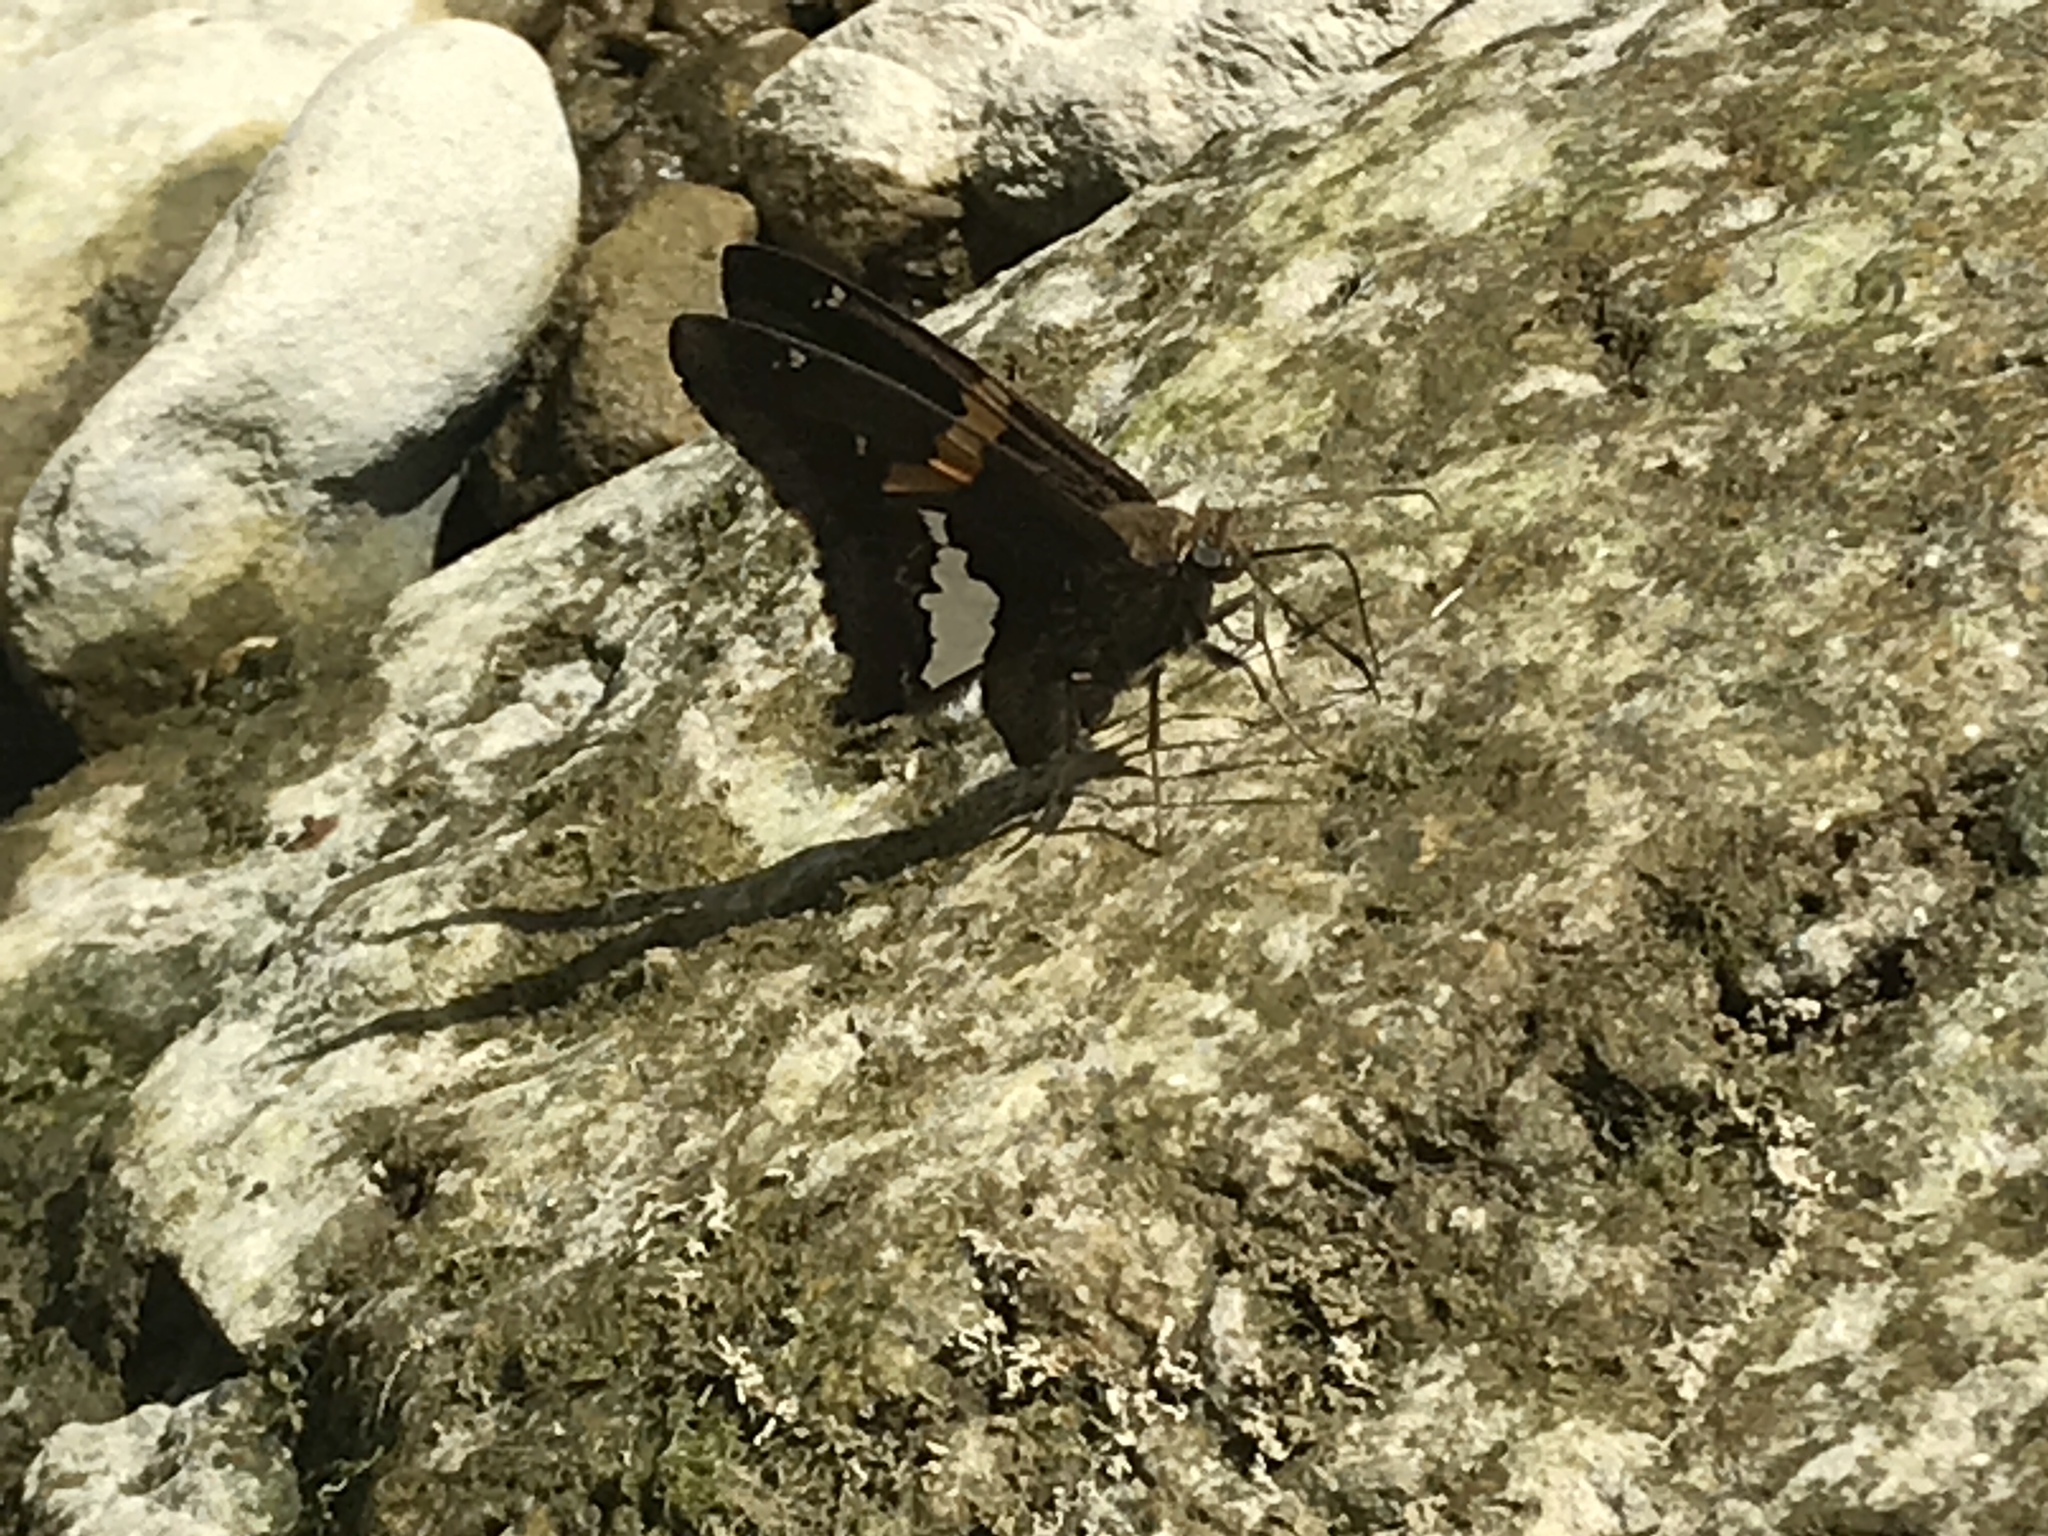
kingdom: Animalia
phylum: Arthropoda
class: Insecta
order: Lepidoptera
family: Hesperiidae
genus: Epargyreus
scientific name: Epargyreus clarus
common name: Silver-spotted skipper
